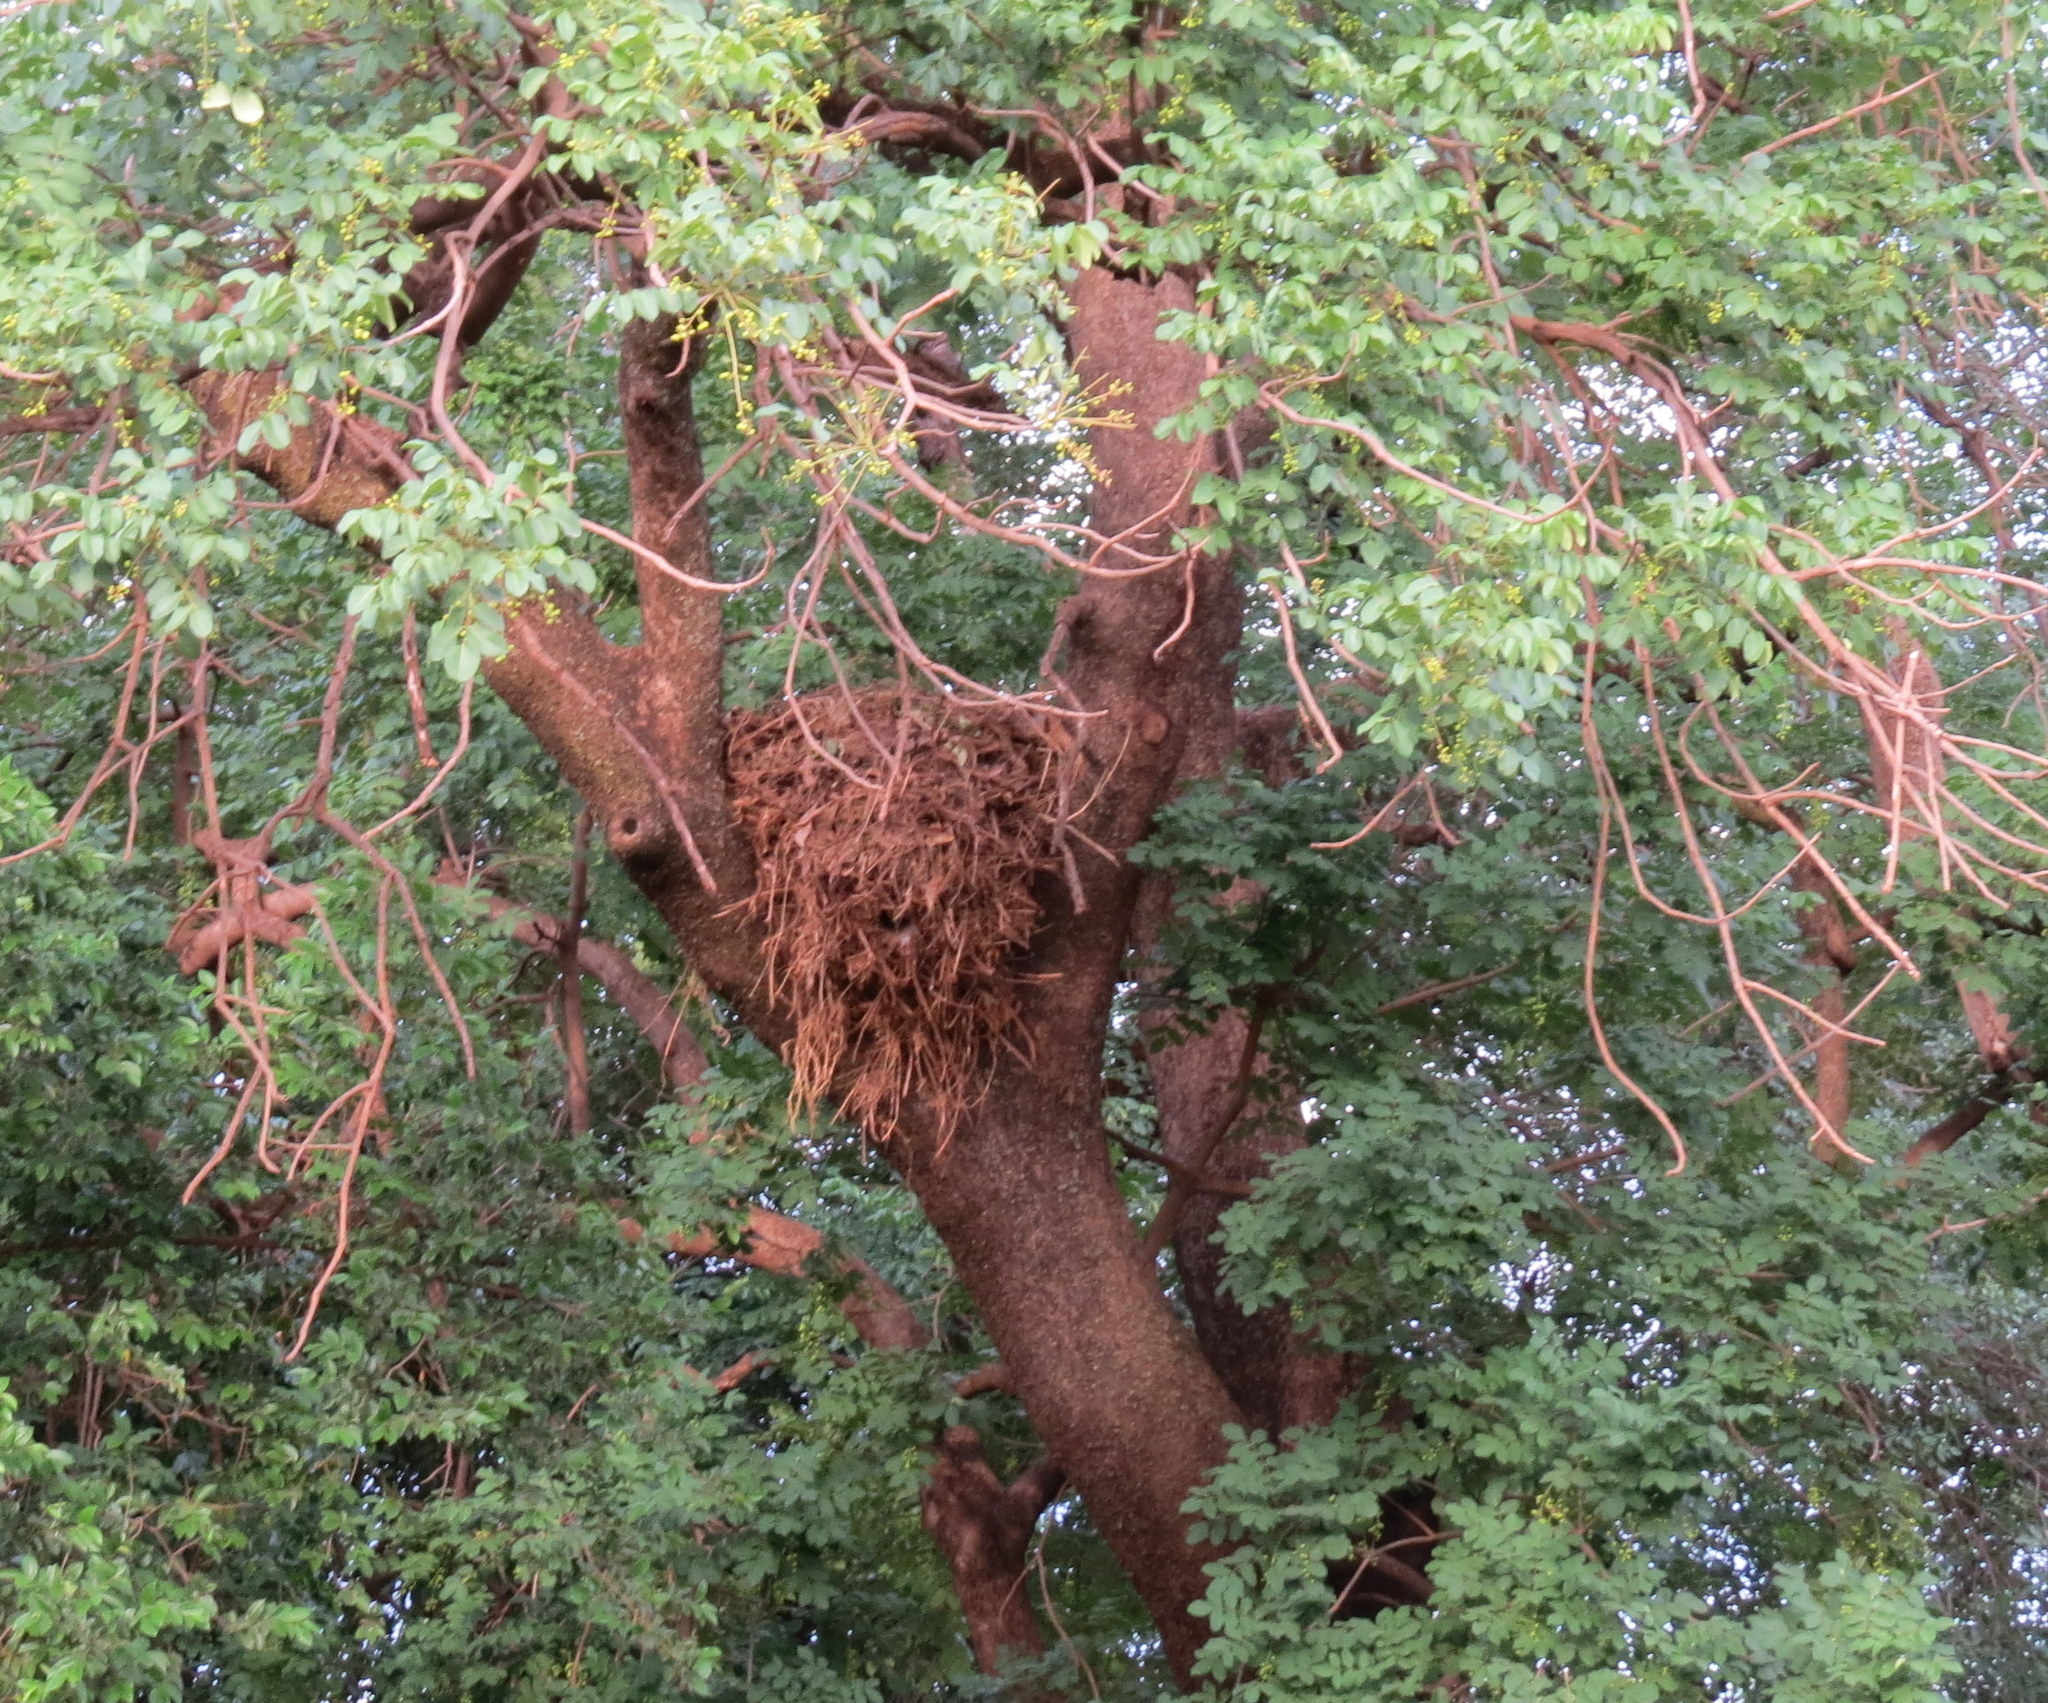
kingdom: Animalia
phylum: Chordata
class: Aves
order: Pelecaniformes
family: Scopidae
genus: Scopus
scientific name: Scopus umbretta
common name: Hamerkop
